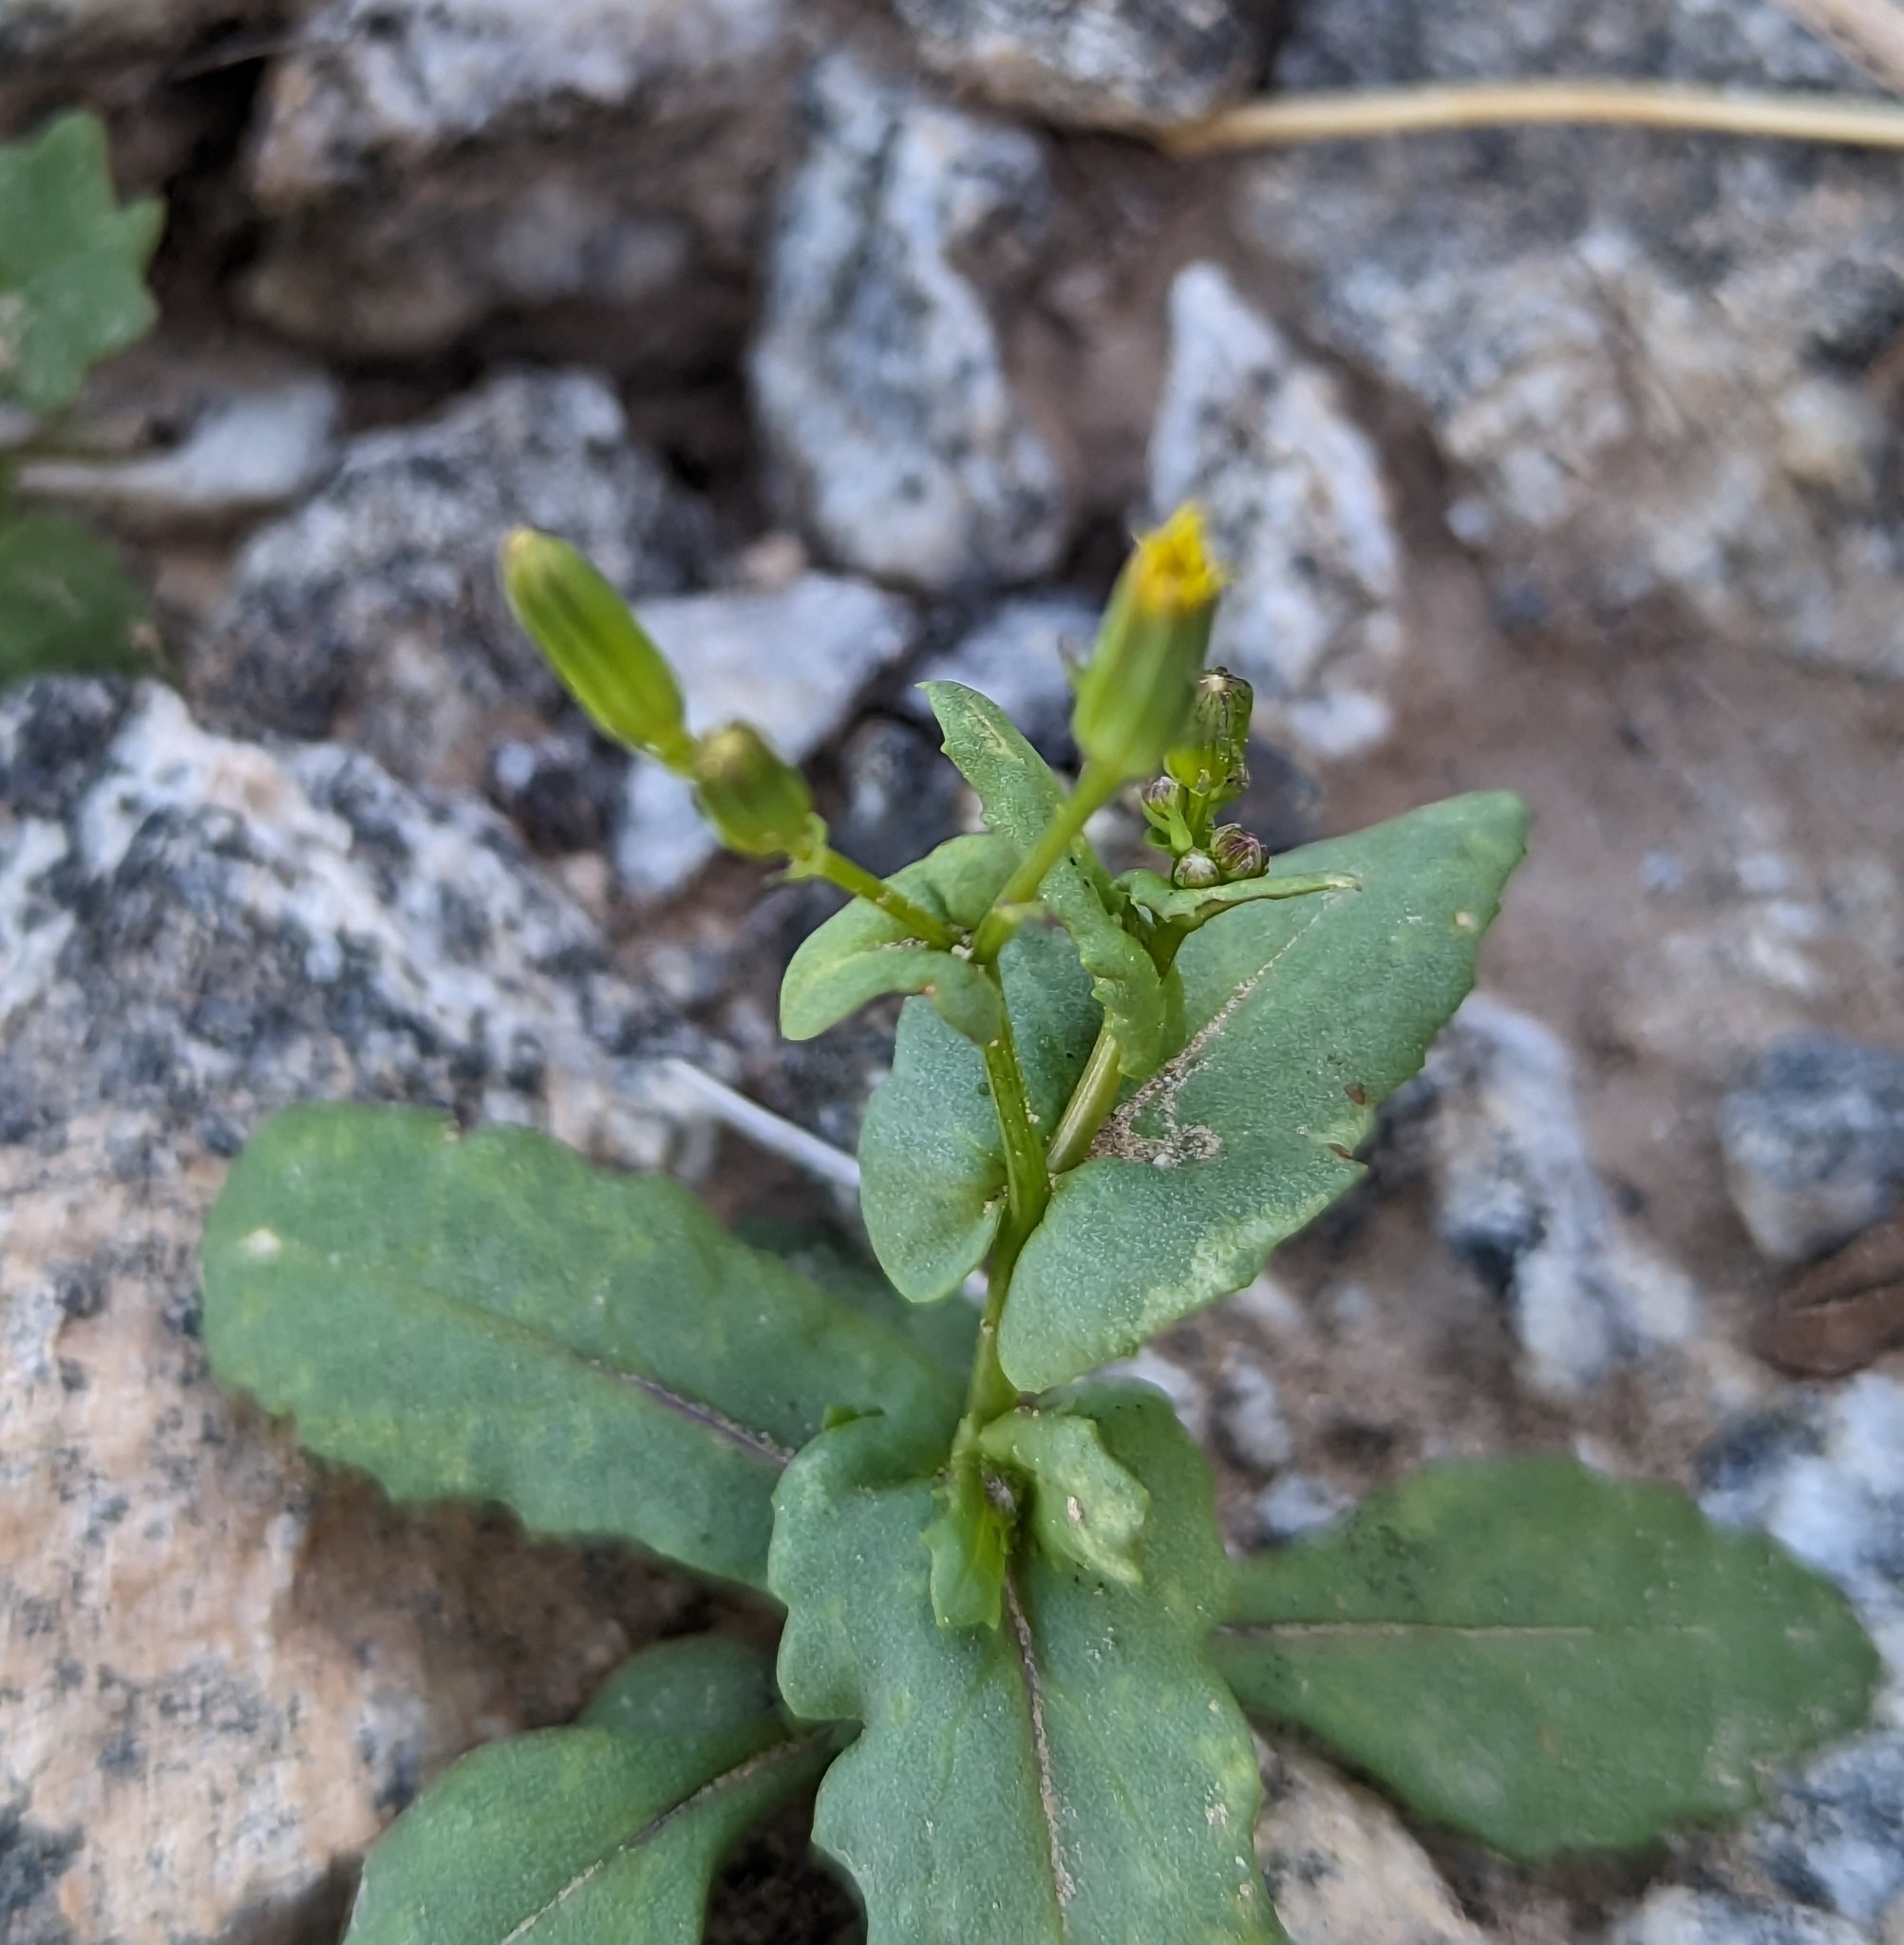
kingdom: Plantae
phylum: Tracheophyta
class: Magnoliopsida
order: Asterales
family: Asteraceae
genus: Senecio
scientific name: Senecio mohavensis
